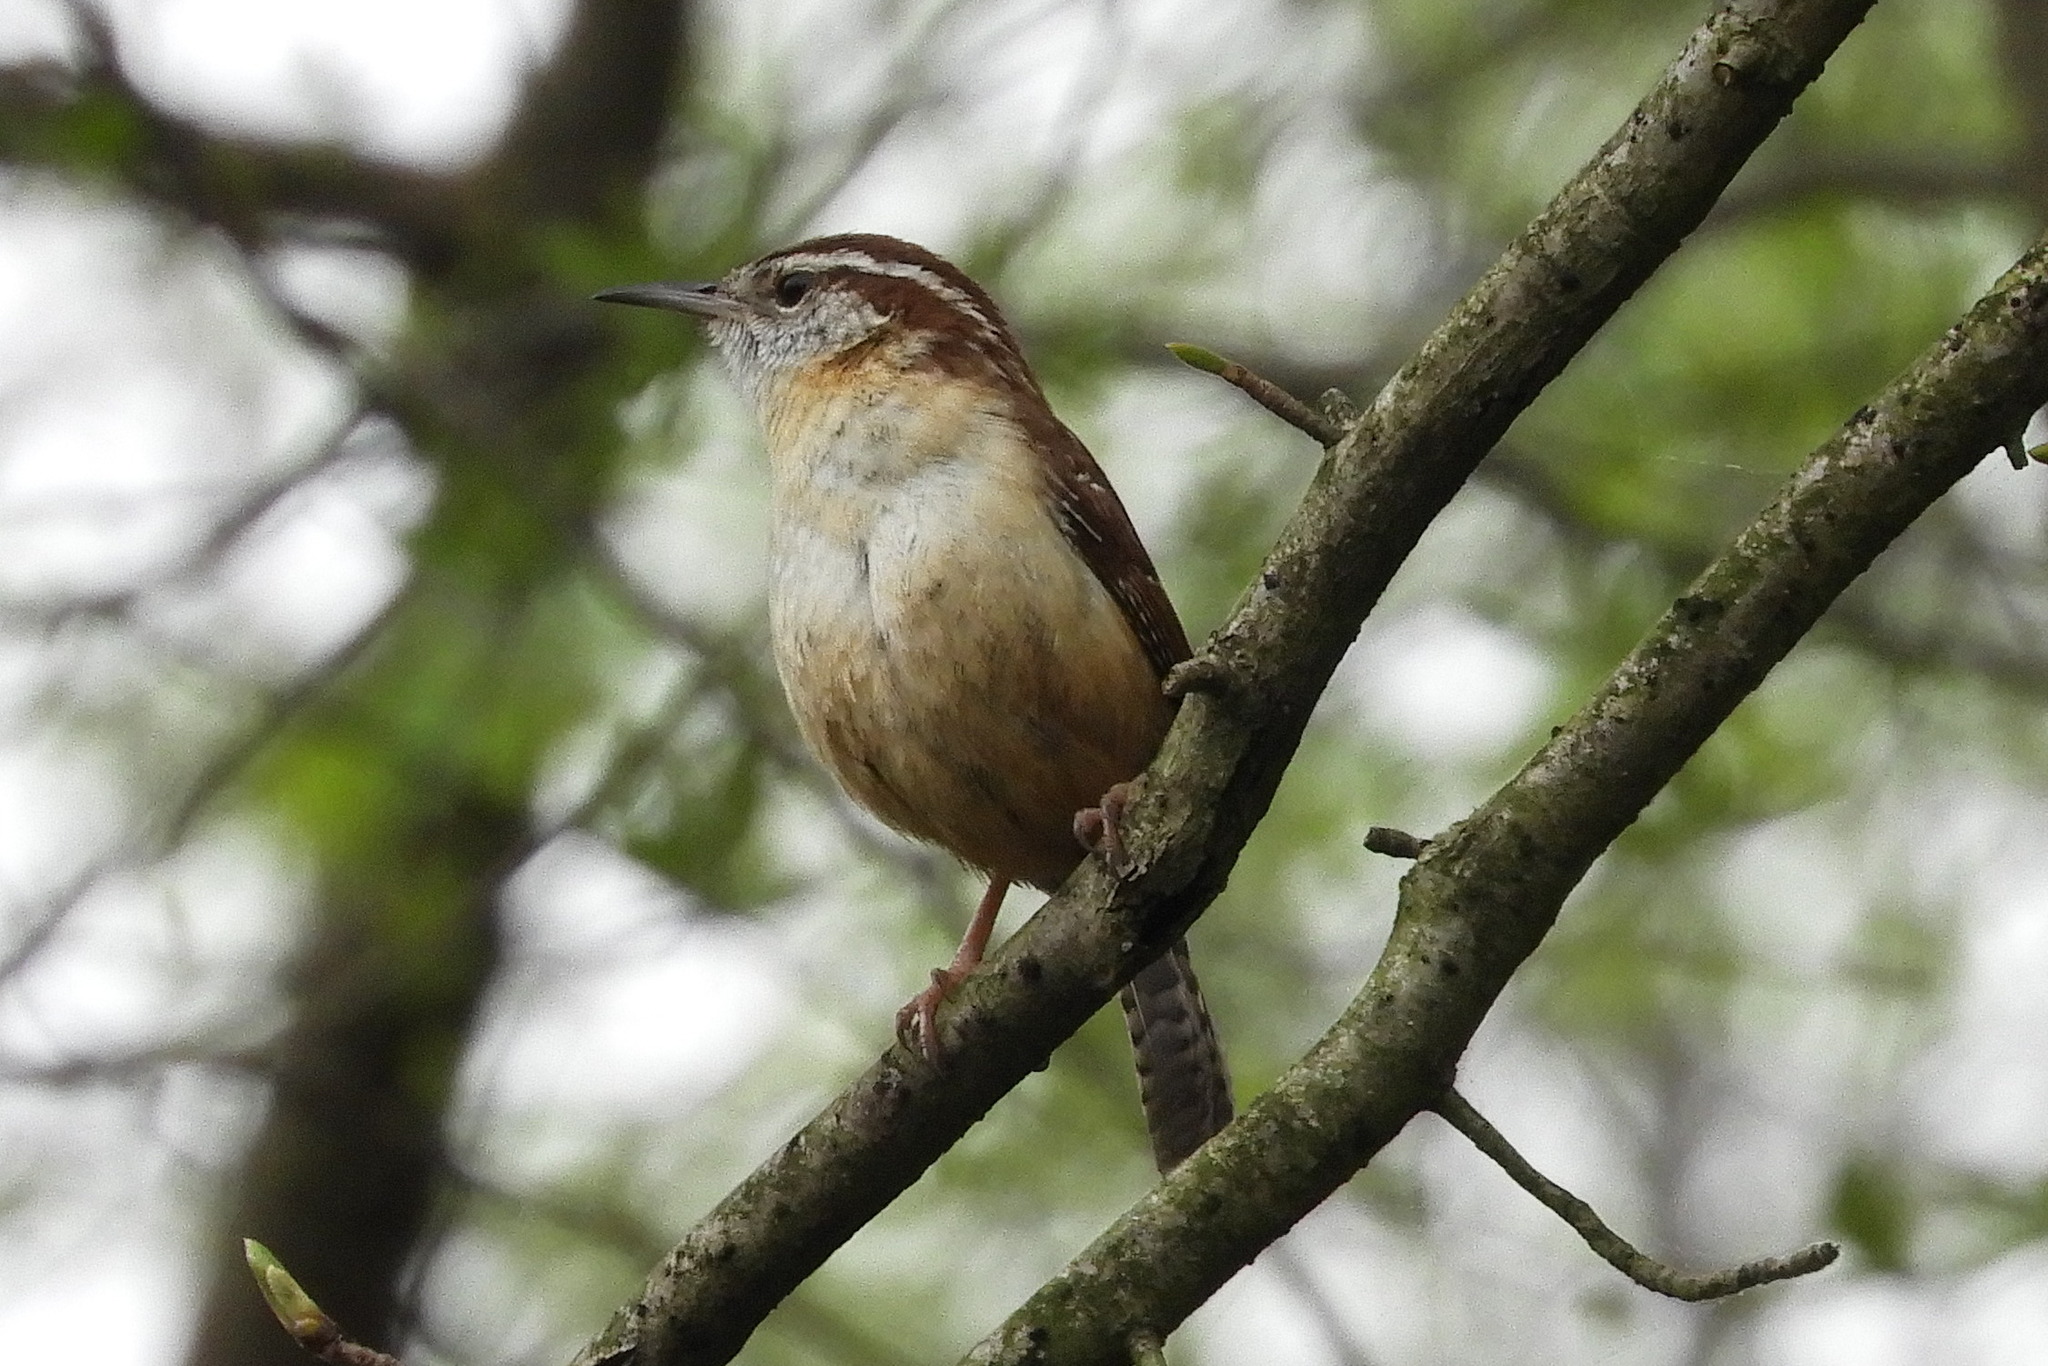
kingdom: Animalia
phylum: Chordata
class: Aves
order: Passeriformes
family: Troglodytidae
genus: Thryothorus
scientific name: Thryothorus ludovicianus
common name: Carolina wren
